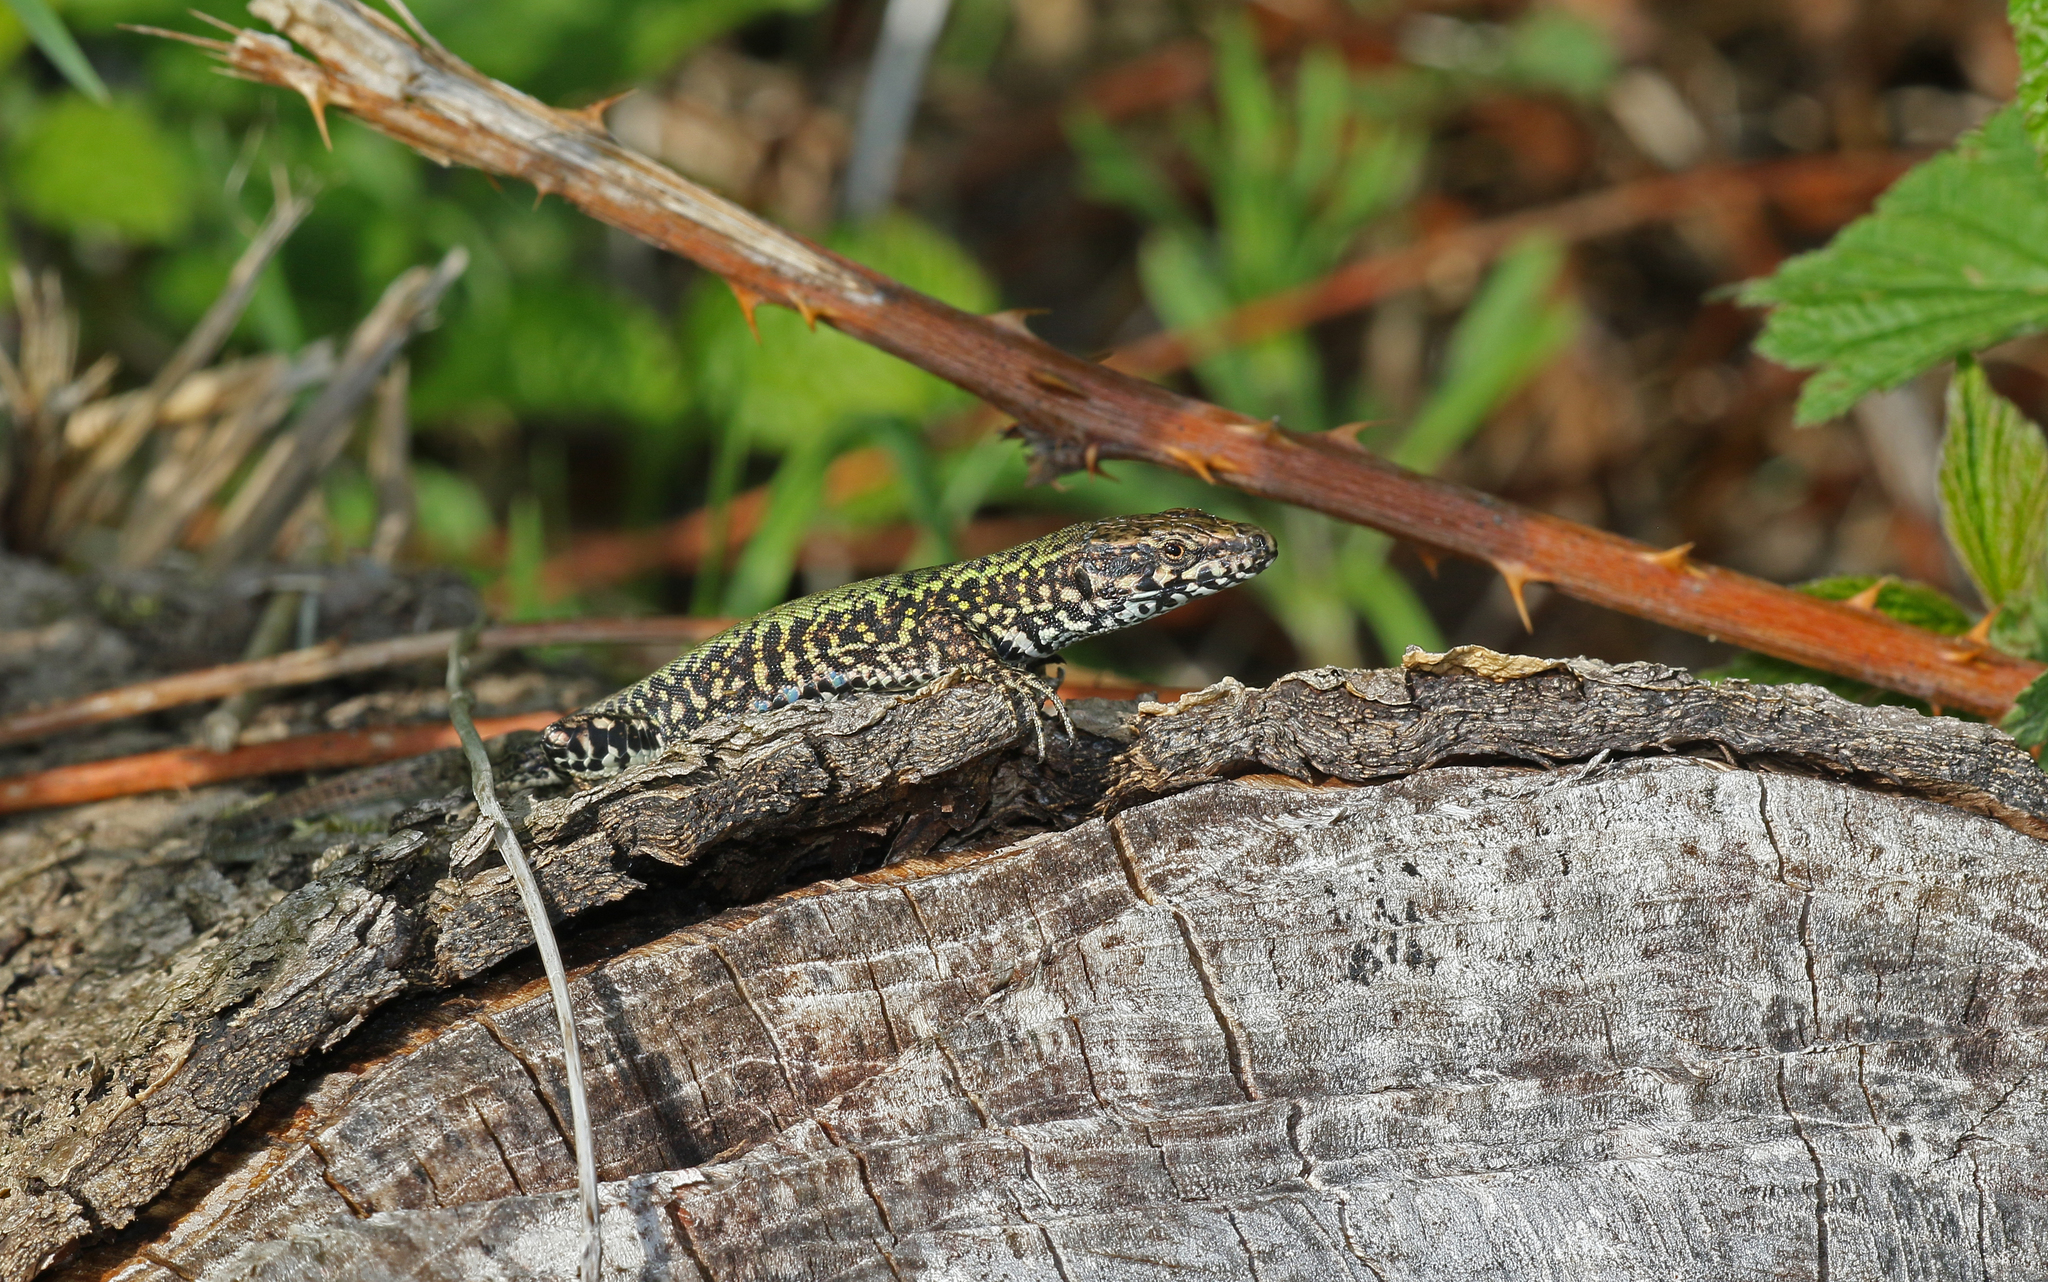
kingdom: Animalia
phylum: Chordata
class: Squamata
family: Lacertidae
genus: Podarcis
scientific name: Podarcis muralis
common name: Common wall lizard
